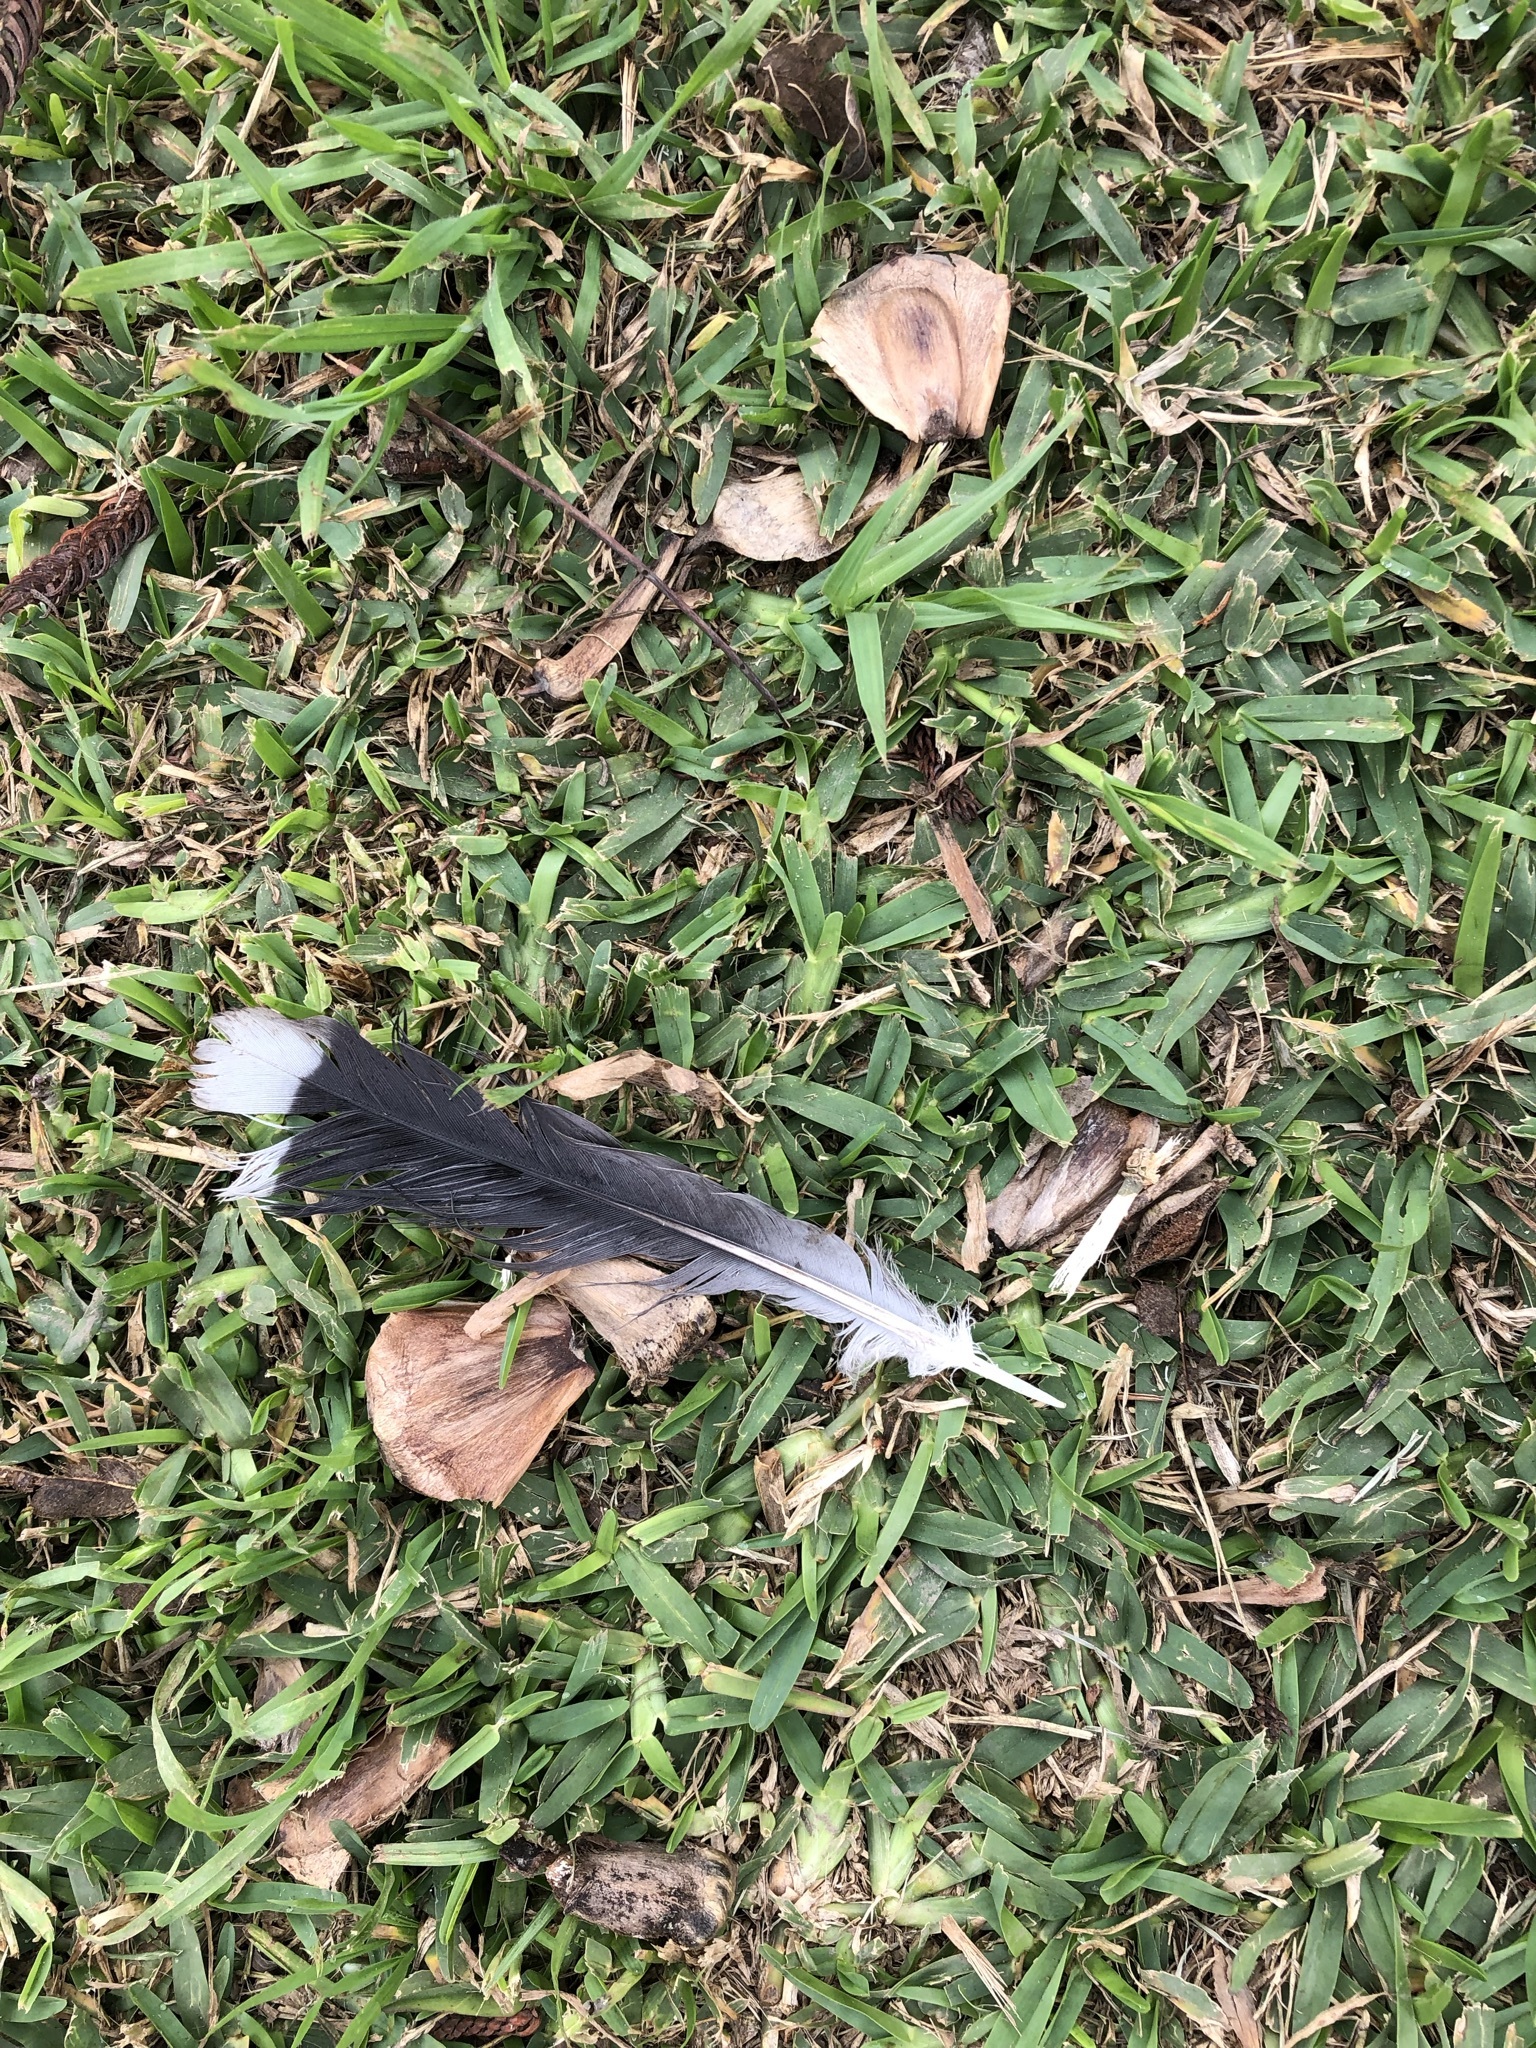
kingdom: Animalia
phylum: Chordata
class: Aves
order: Columbiformes
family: Columbidae
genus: Zenaida
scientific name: Zenaida meloda
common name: West peruvian dove
